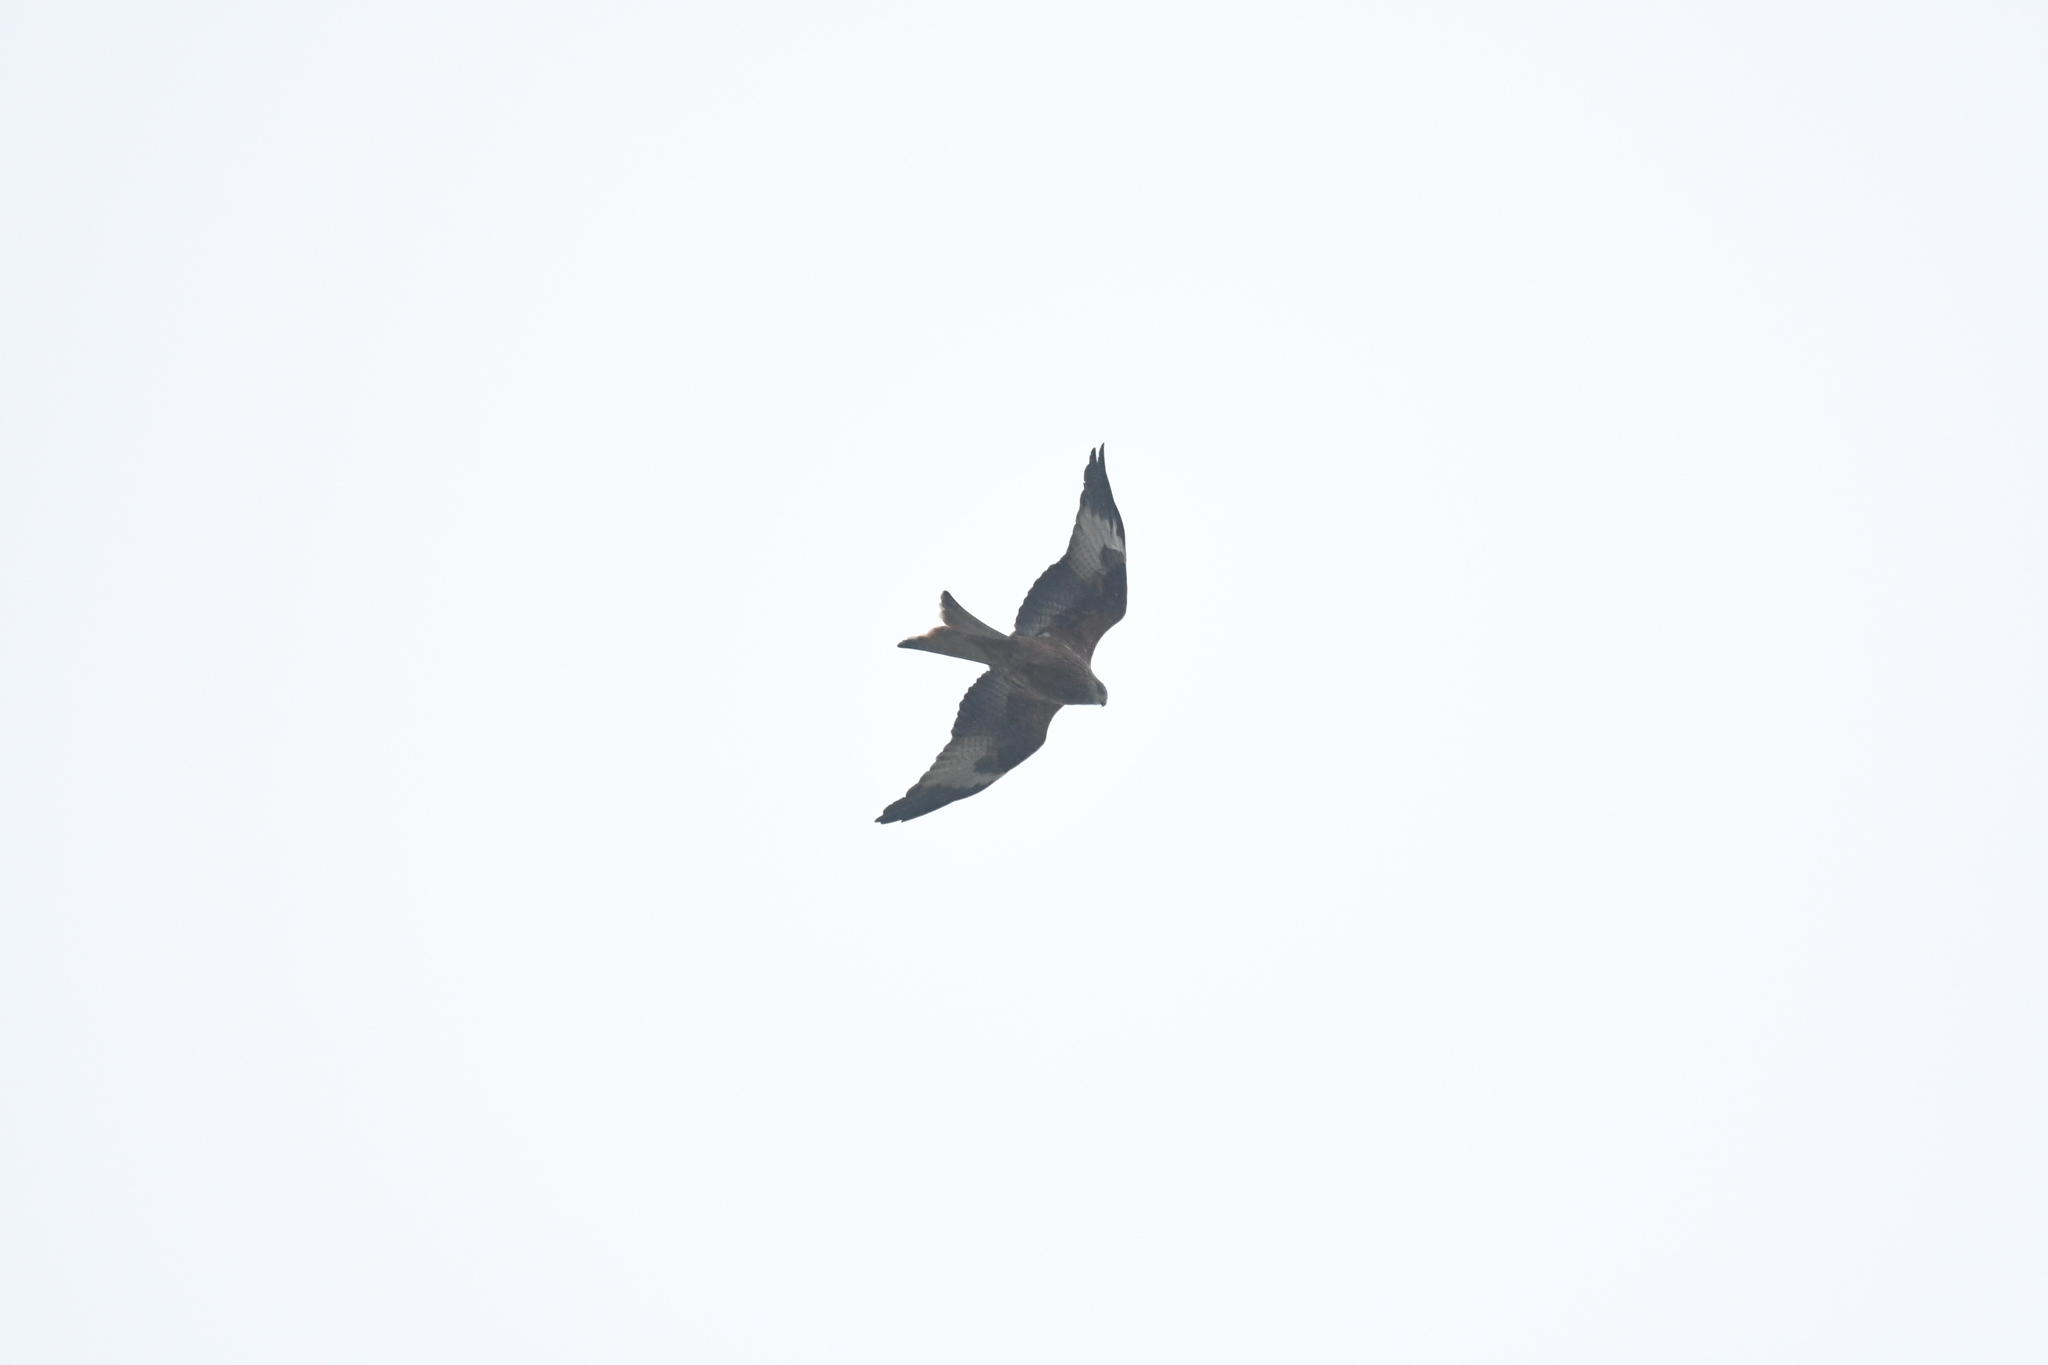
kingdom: Animalia
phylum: Chordata
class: Aves
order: Accipitriformes
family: Accipitridae
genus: Milvus
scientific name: Milvus milvus
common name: Red kite
